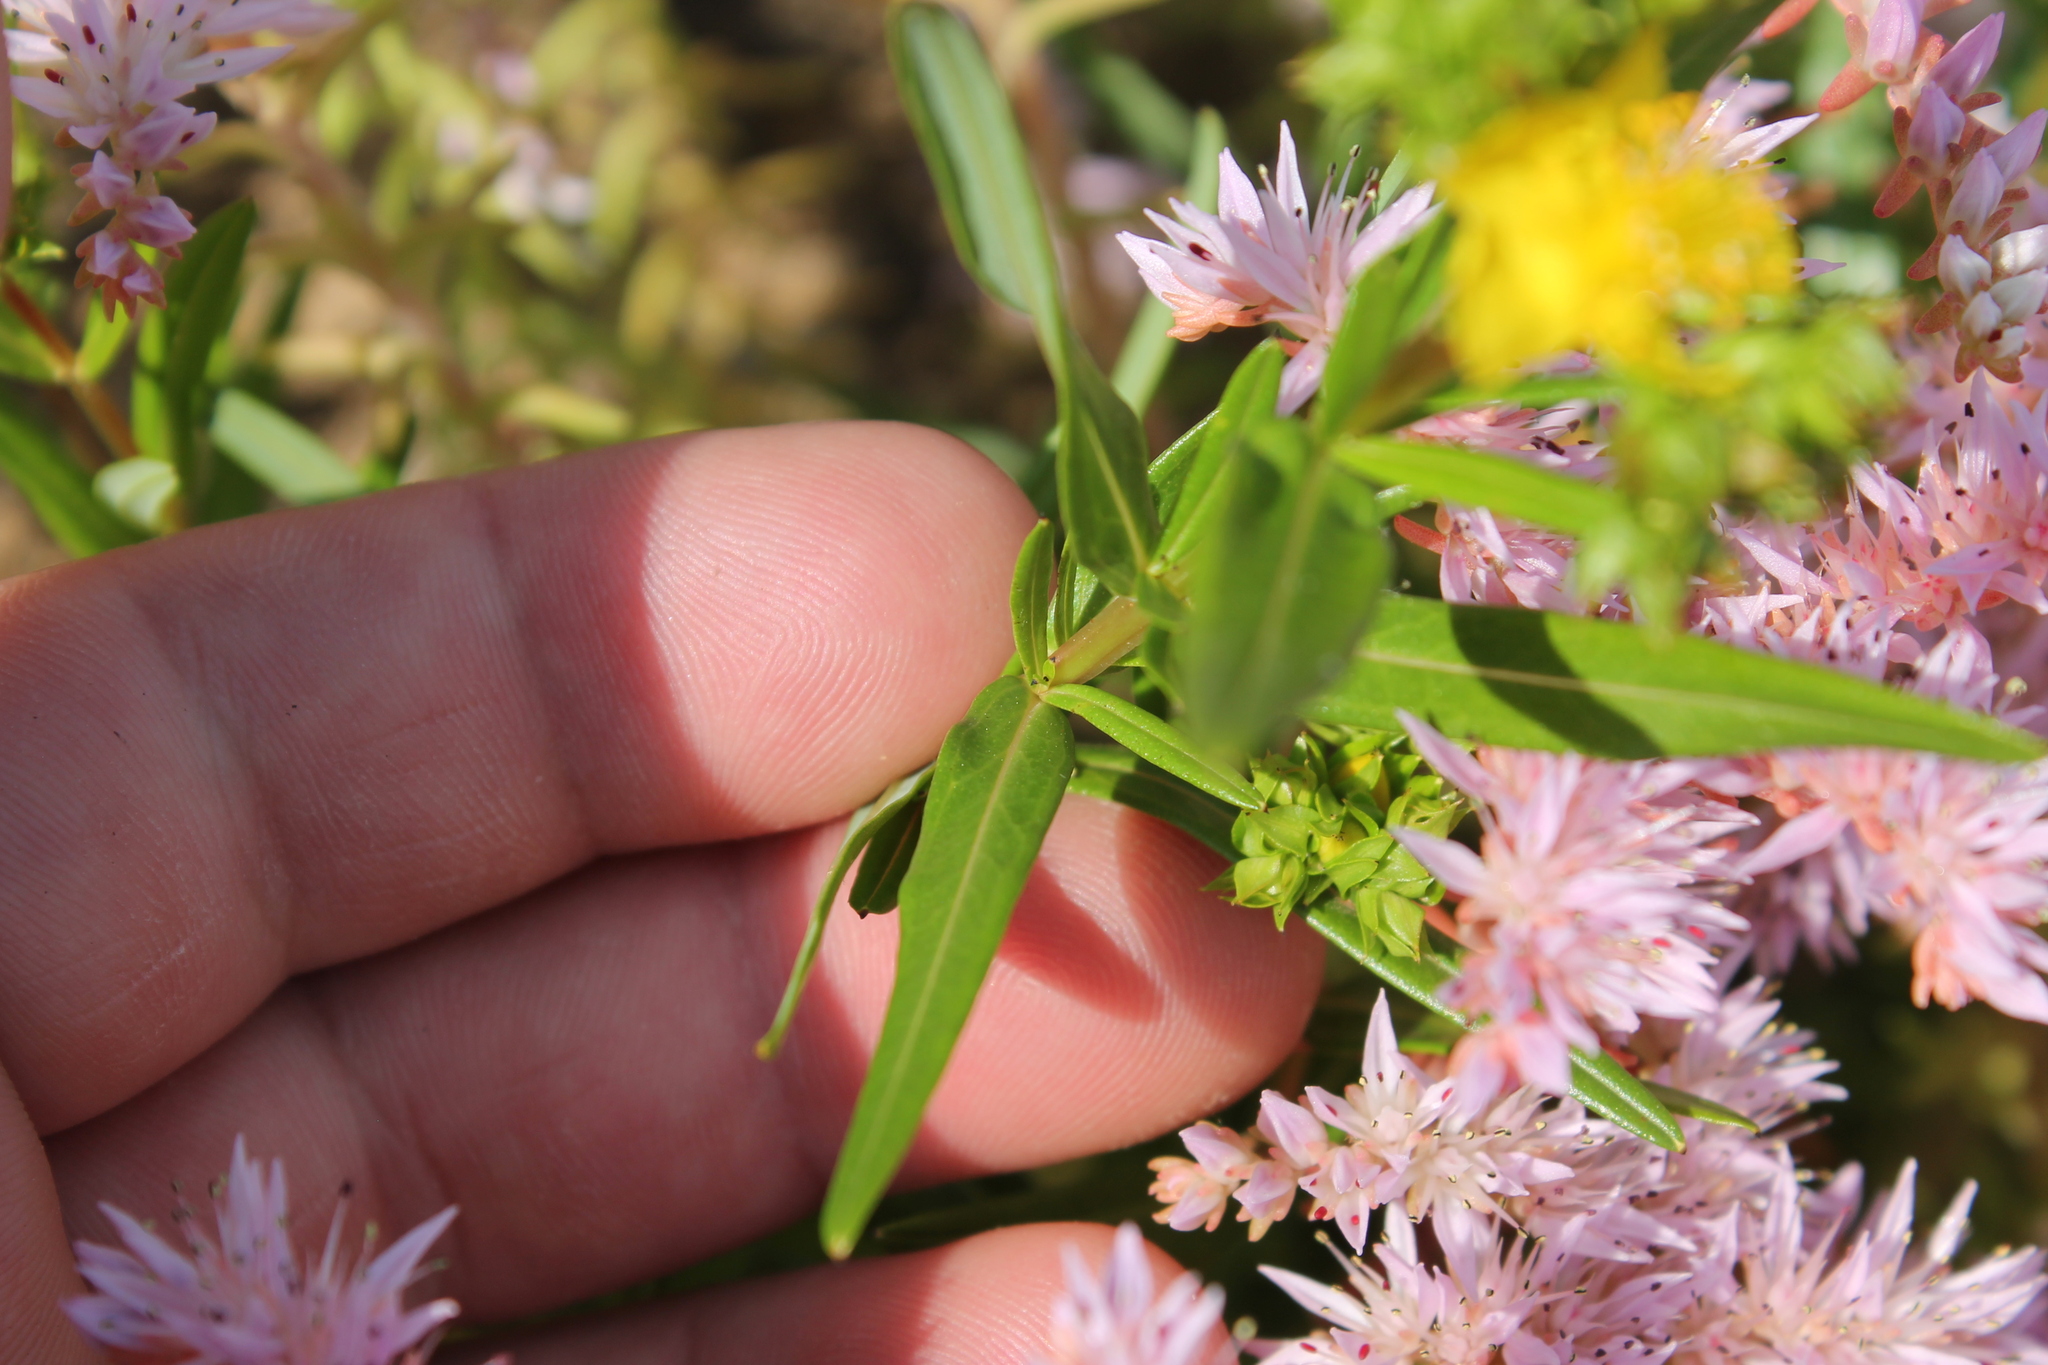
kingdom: Plantae
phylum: Tracheophyta
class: Magnoliopsida
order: Malpighiales
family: Hypericaceae
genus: Hypericum
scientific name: Hypericum sphaerocarpum
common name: Round-fruited st. john's-wort
